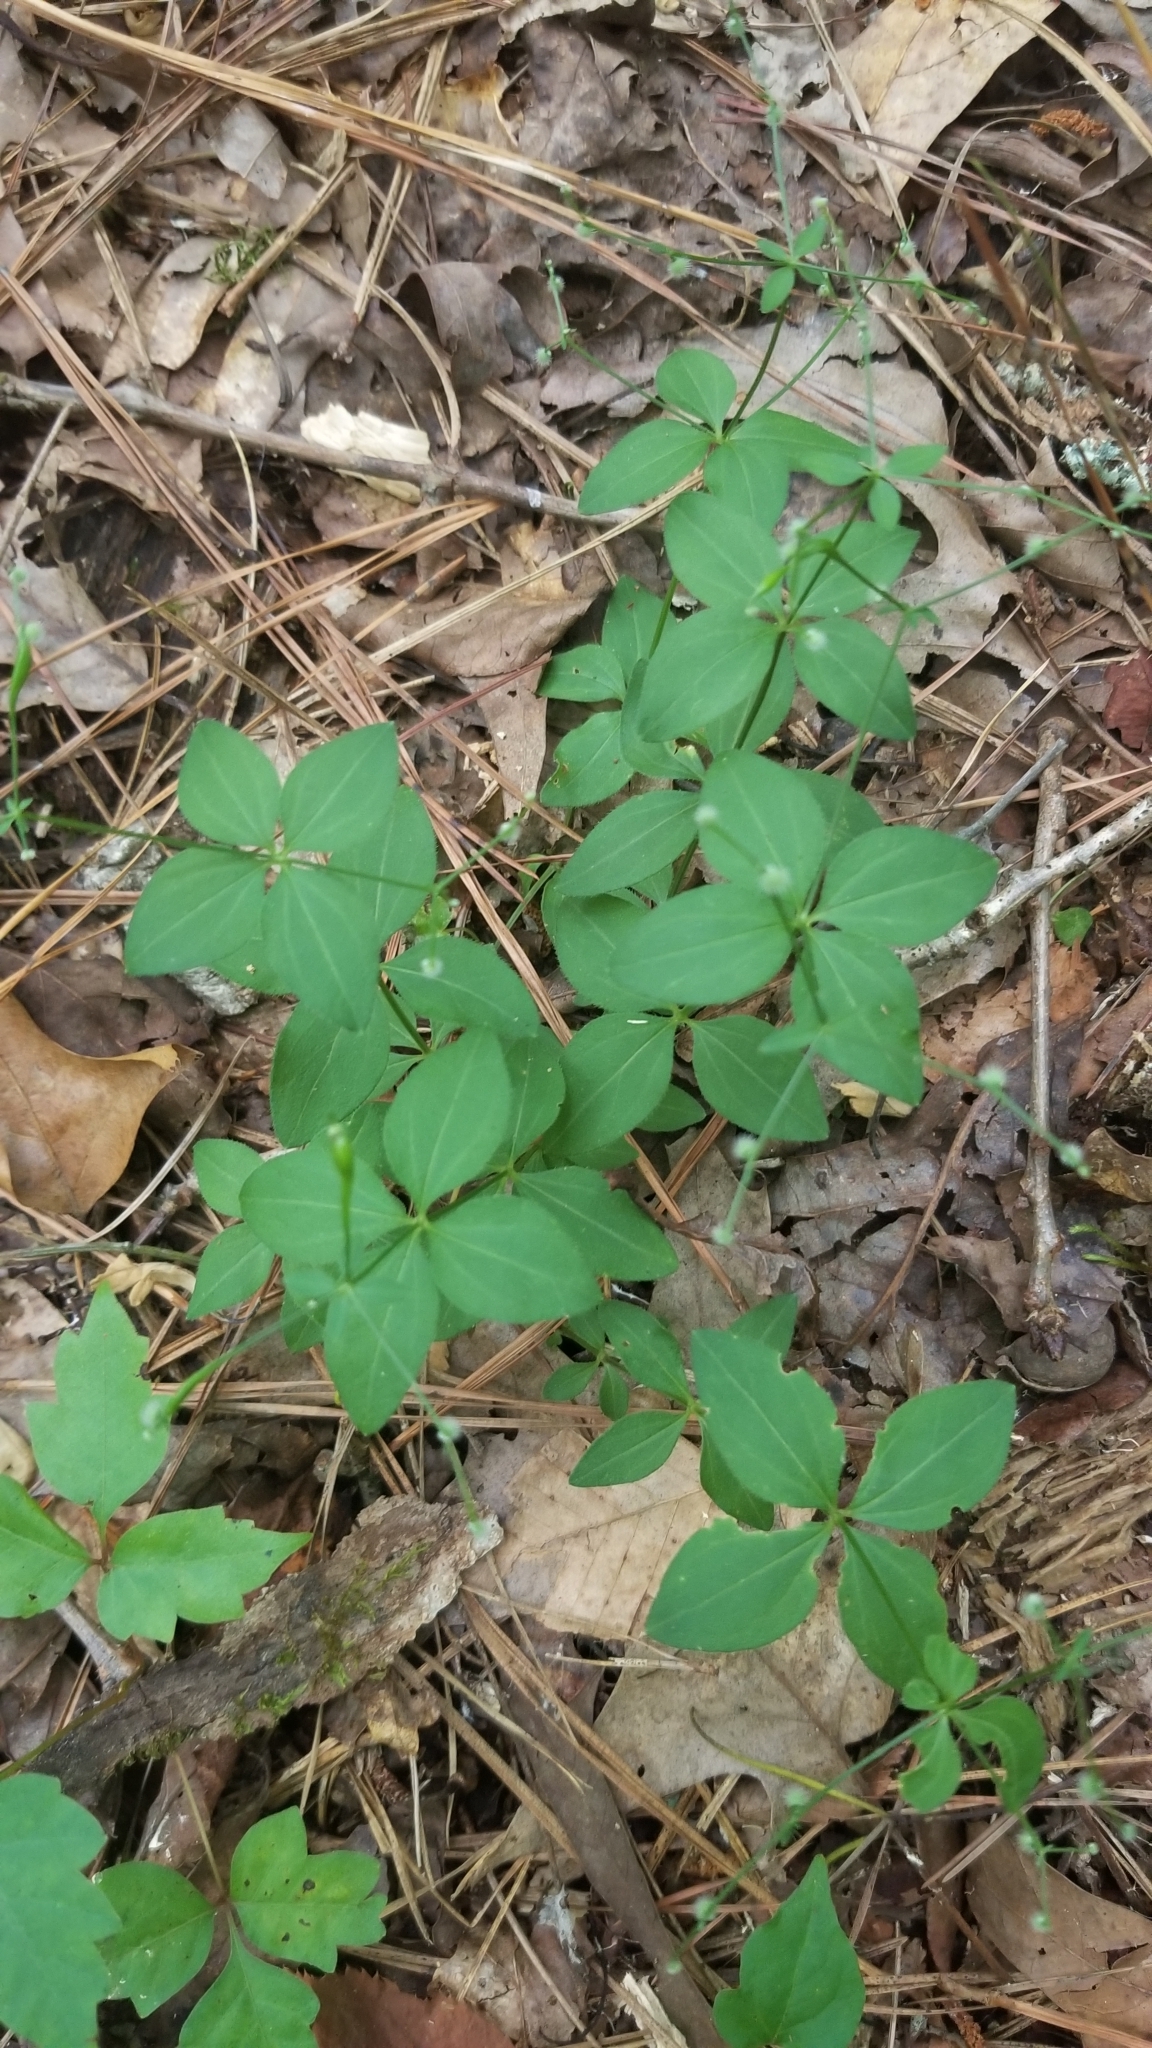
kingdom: Plantae
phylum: Tracheophyta
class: Magnoliopsida
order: Gentianales
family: Rubiaceae
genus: Galium
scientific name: Galium circaezans
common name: Forest bedstraw
